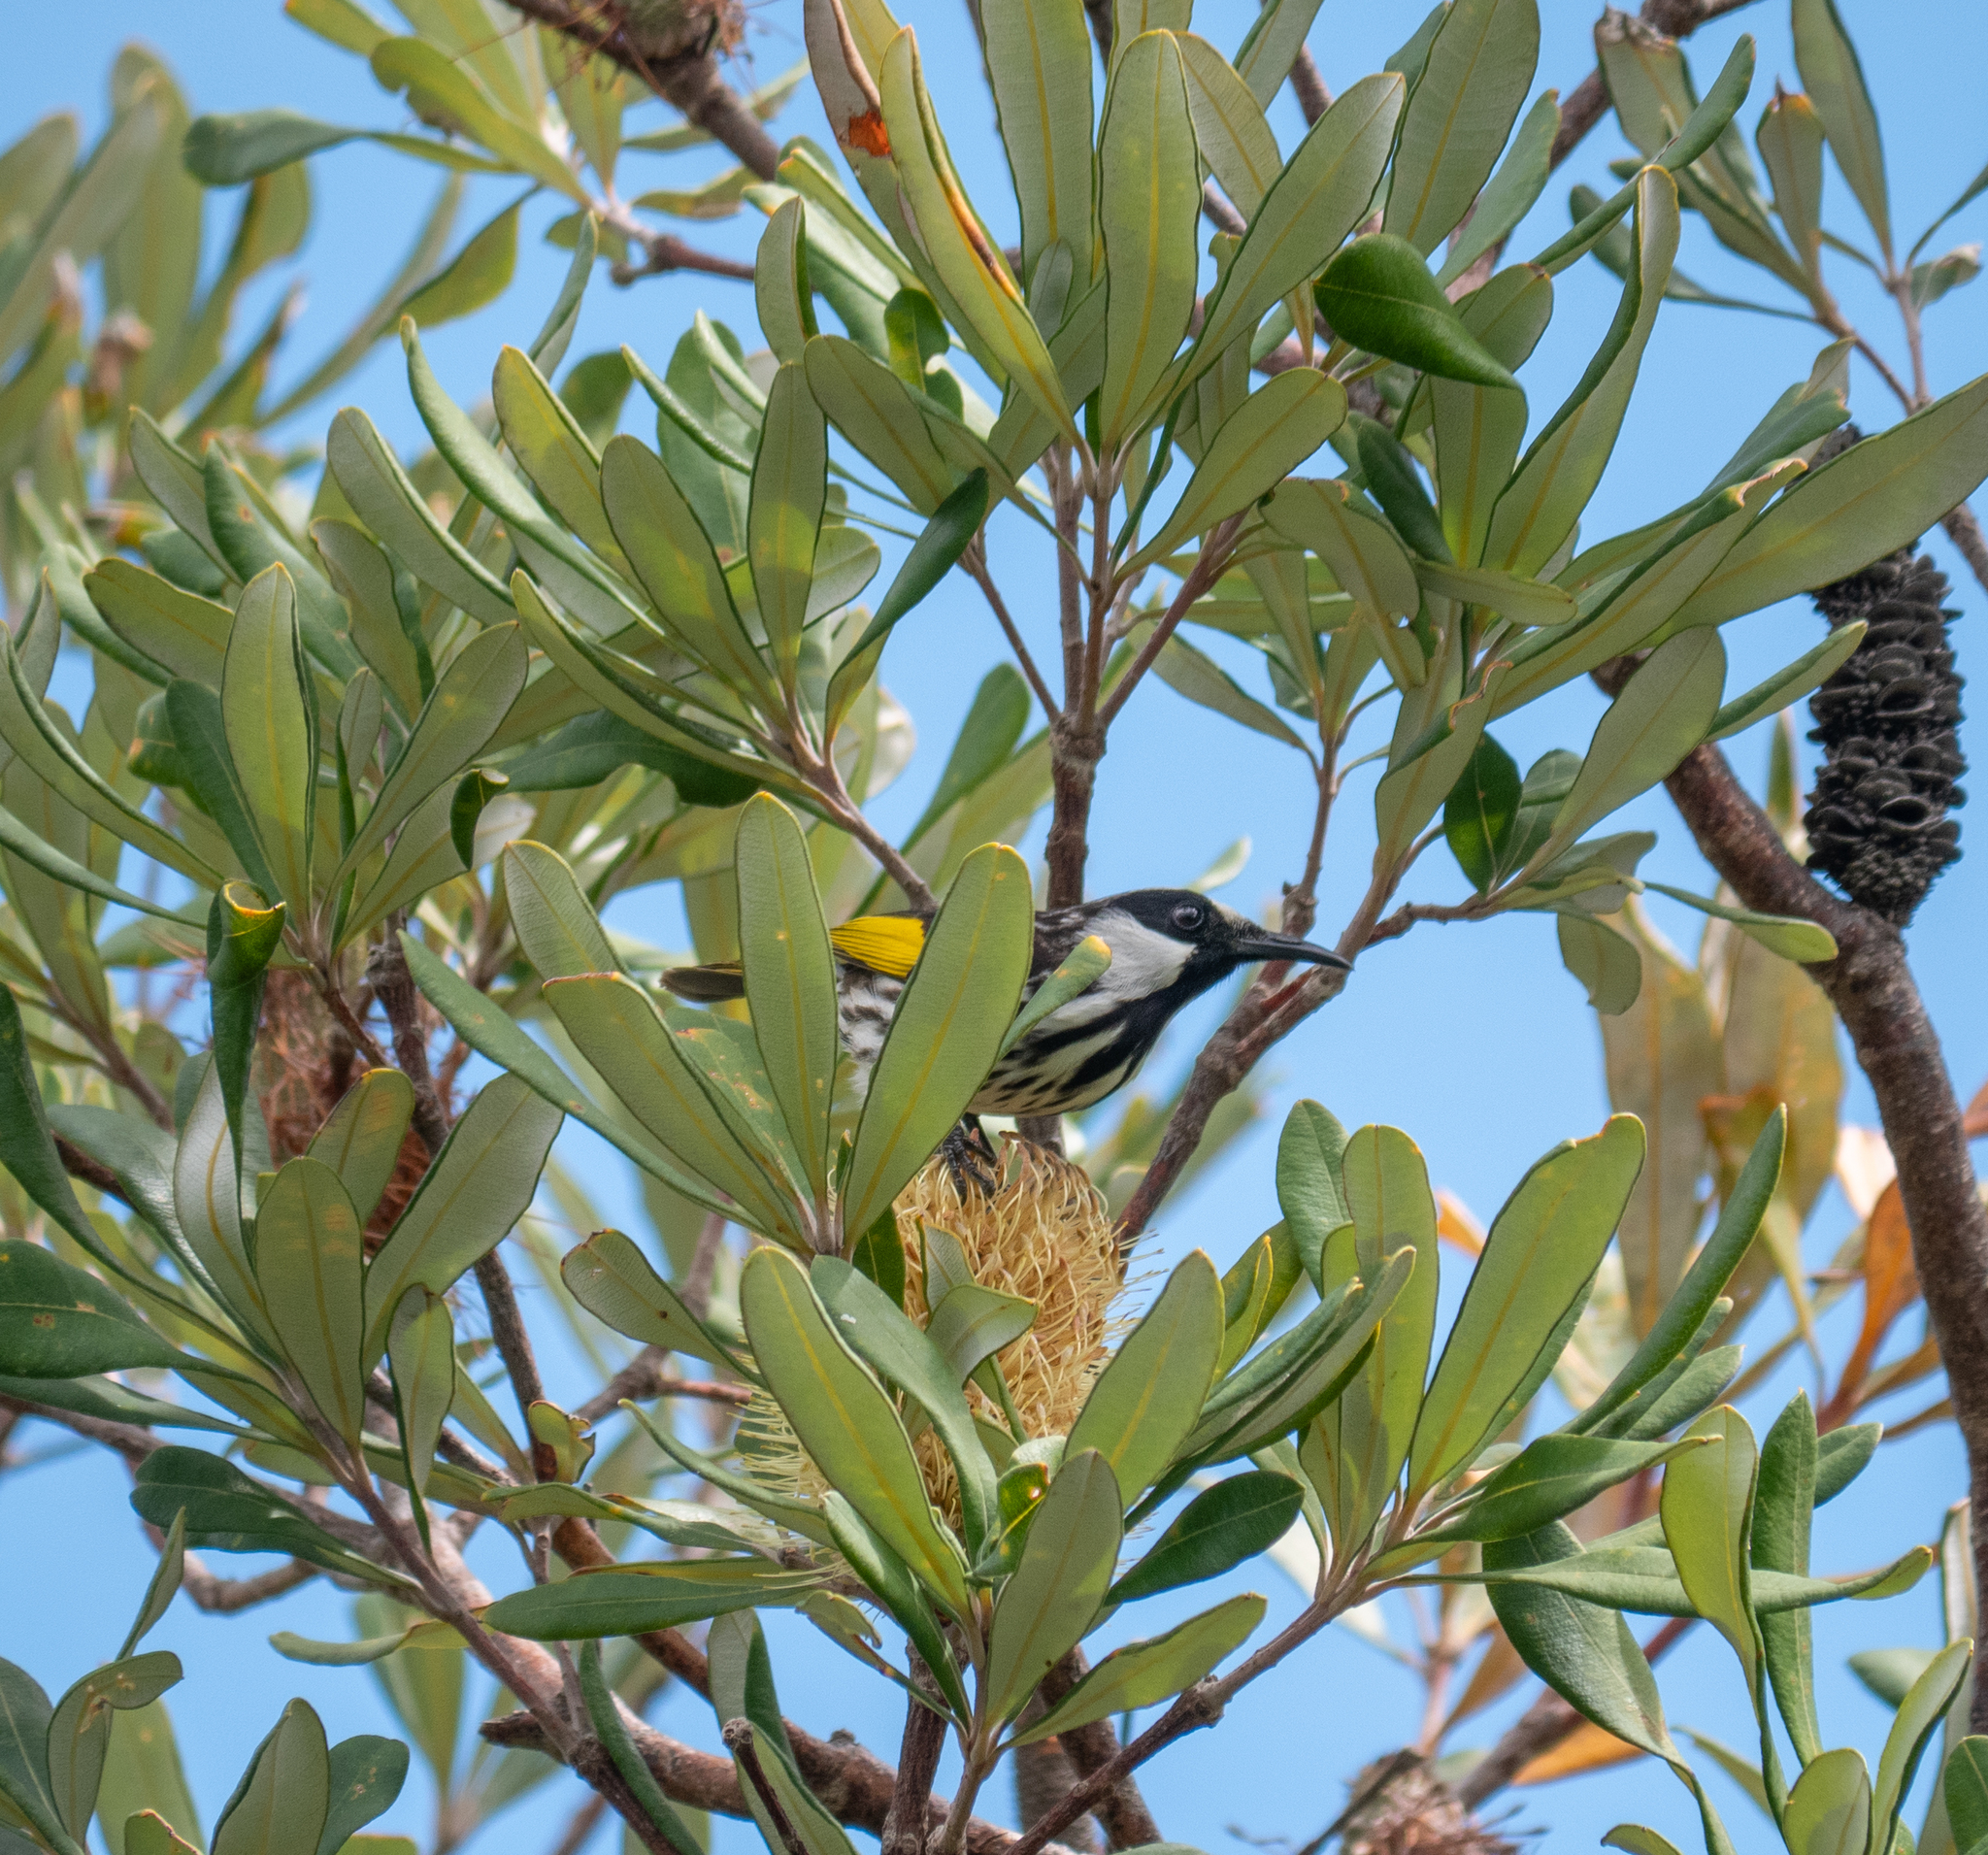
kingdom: Animalia
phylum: Chordata
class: Aves
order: Passeriformes
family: Meliphagidae
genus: Phylidonyris
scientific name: Phylidonyris niger
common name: White-cheeked honeyeater
